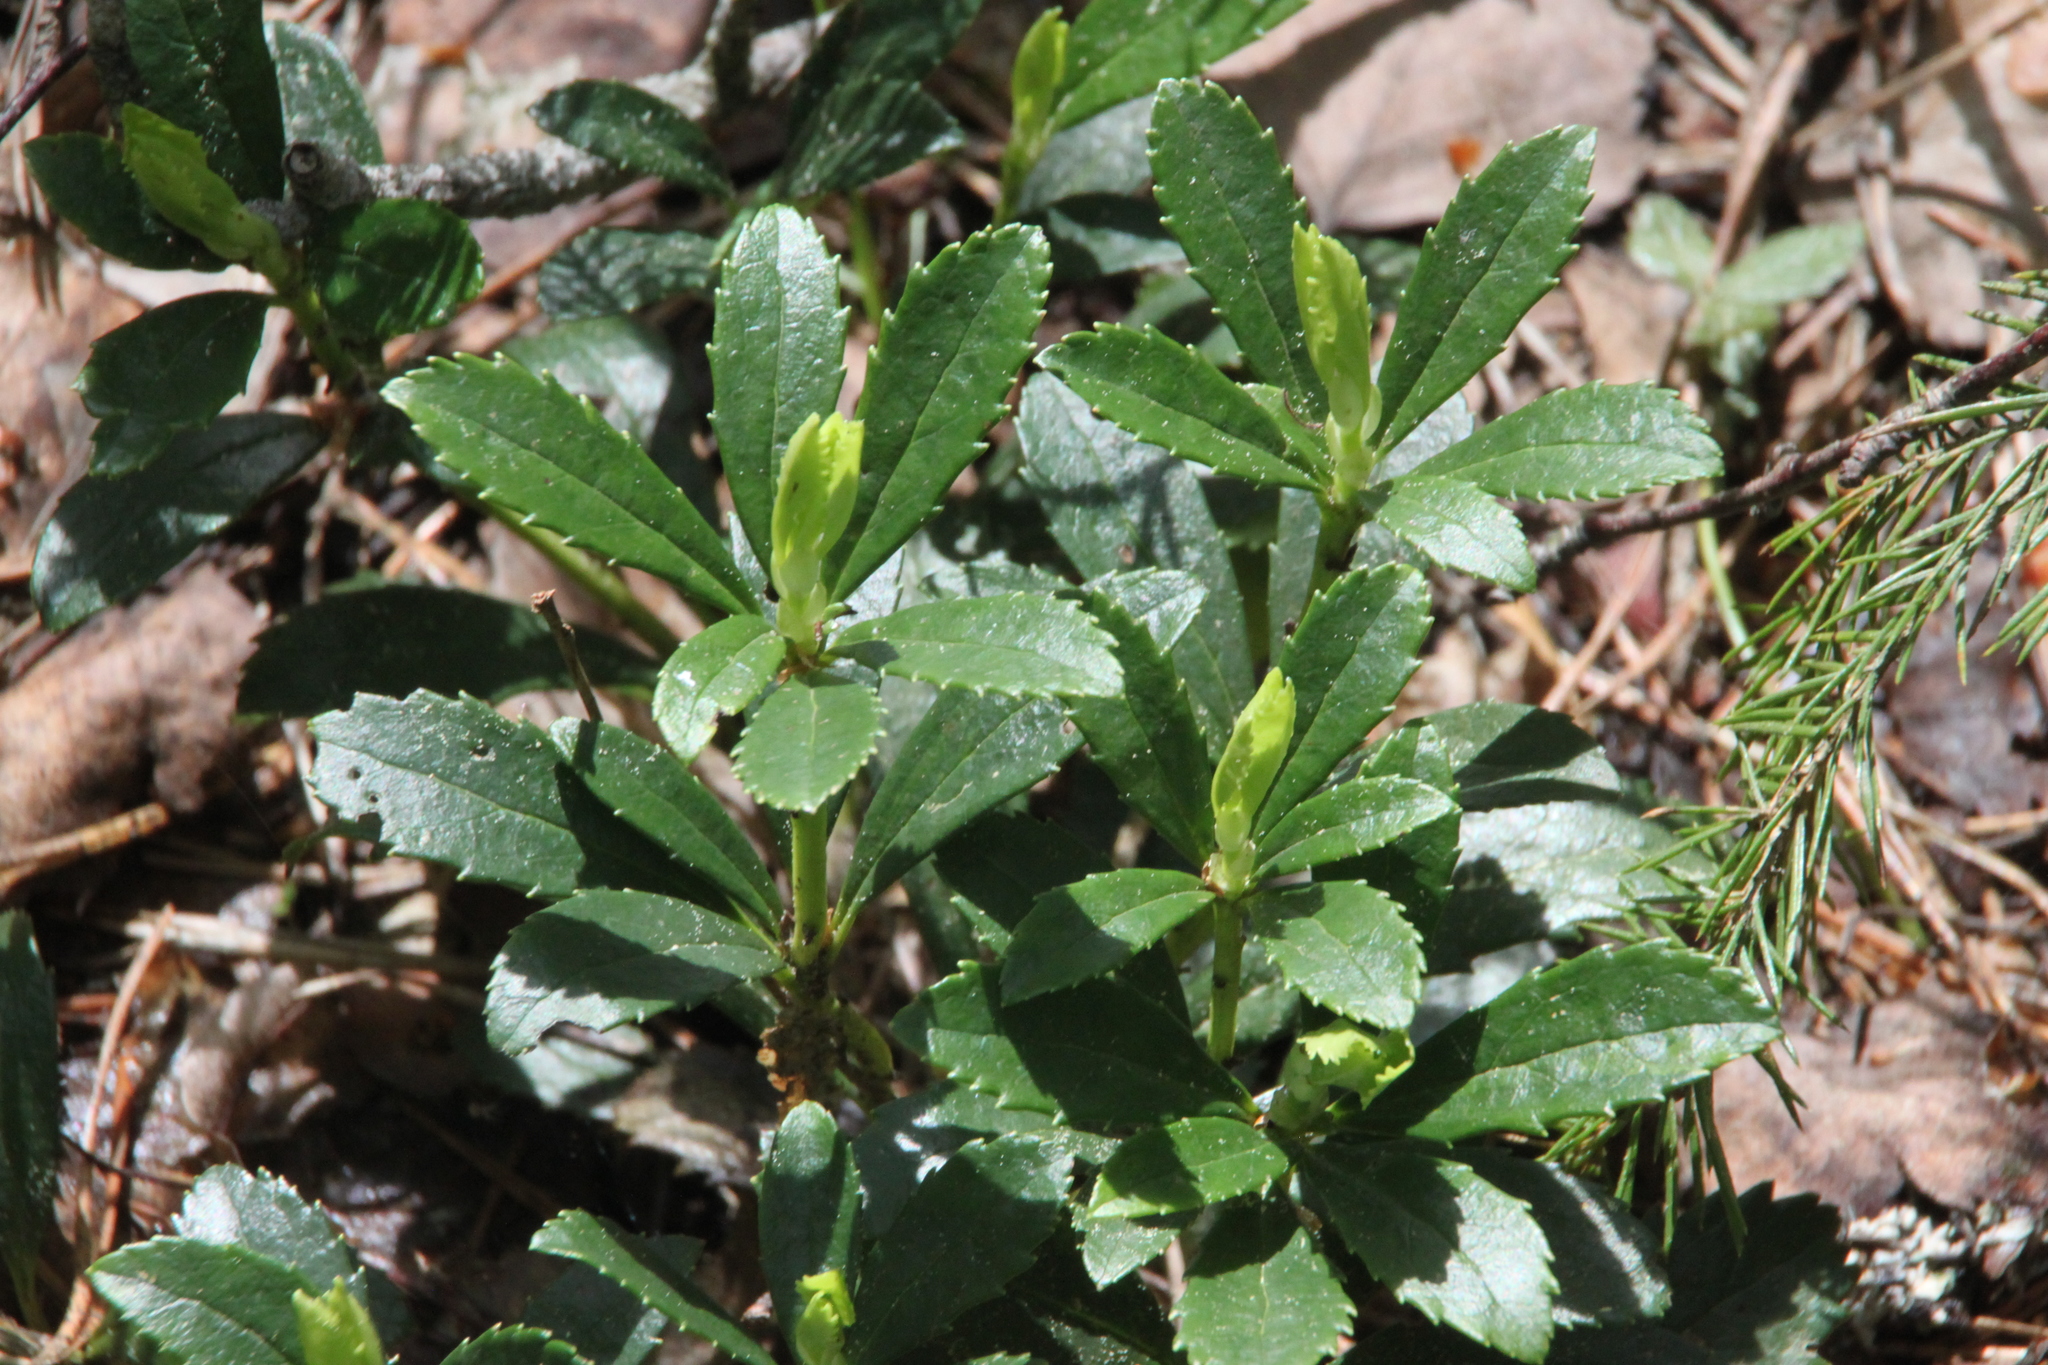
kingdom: Plantae
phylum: Tracheophyta
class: Magnoliopsida
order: Ericales
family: Ericaceae
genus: Chimaphila
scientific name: Chimaphila umbellata
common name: Pipsissewa
